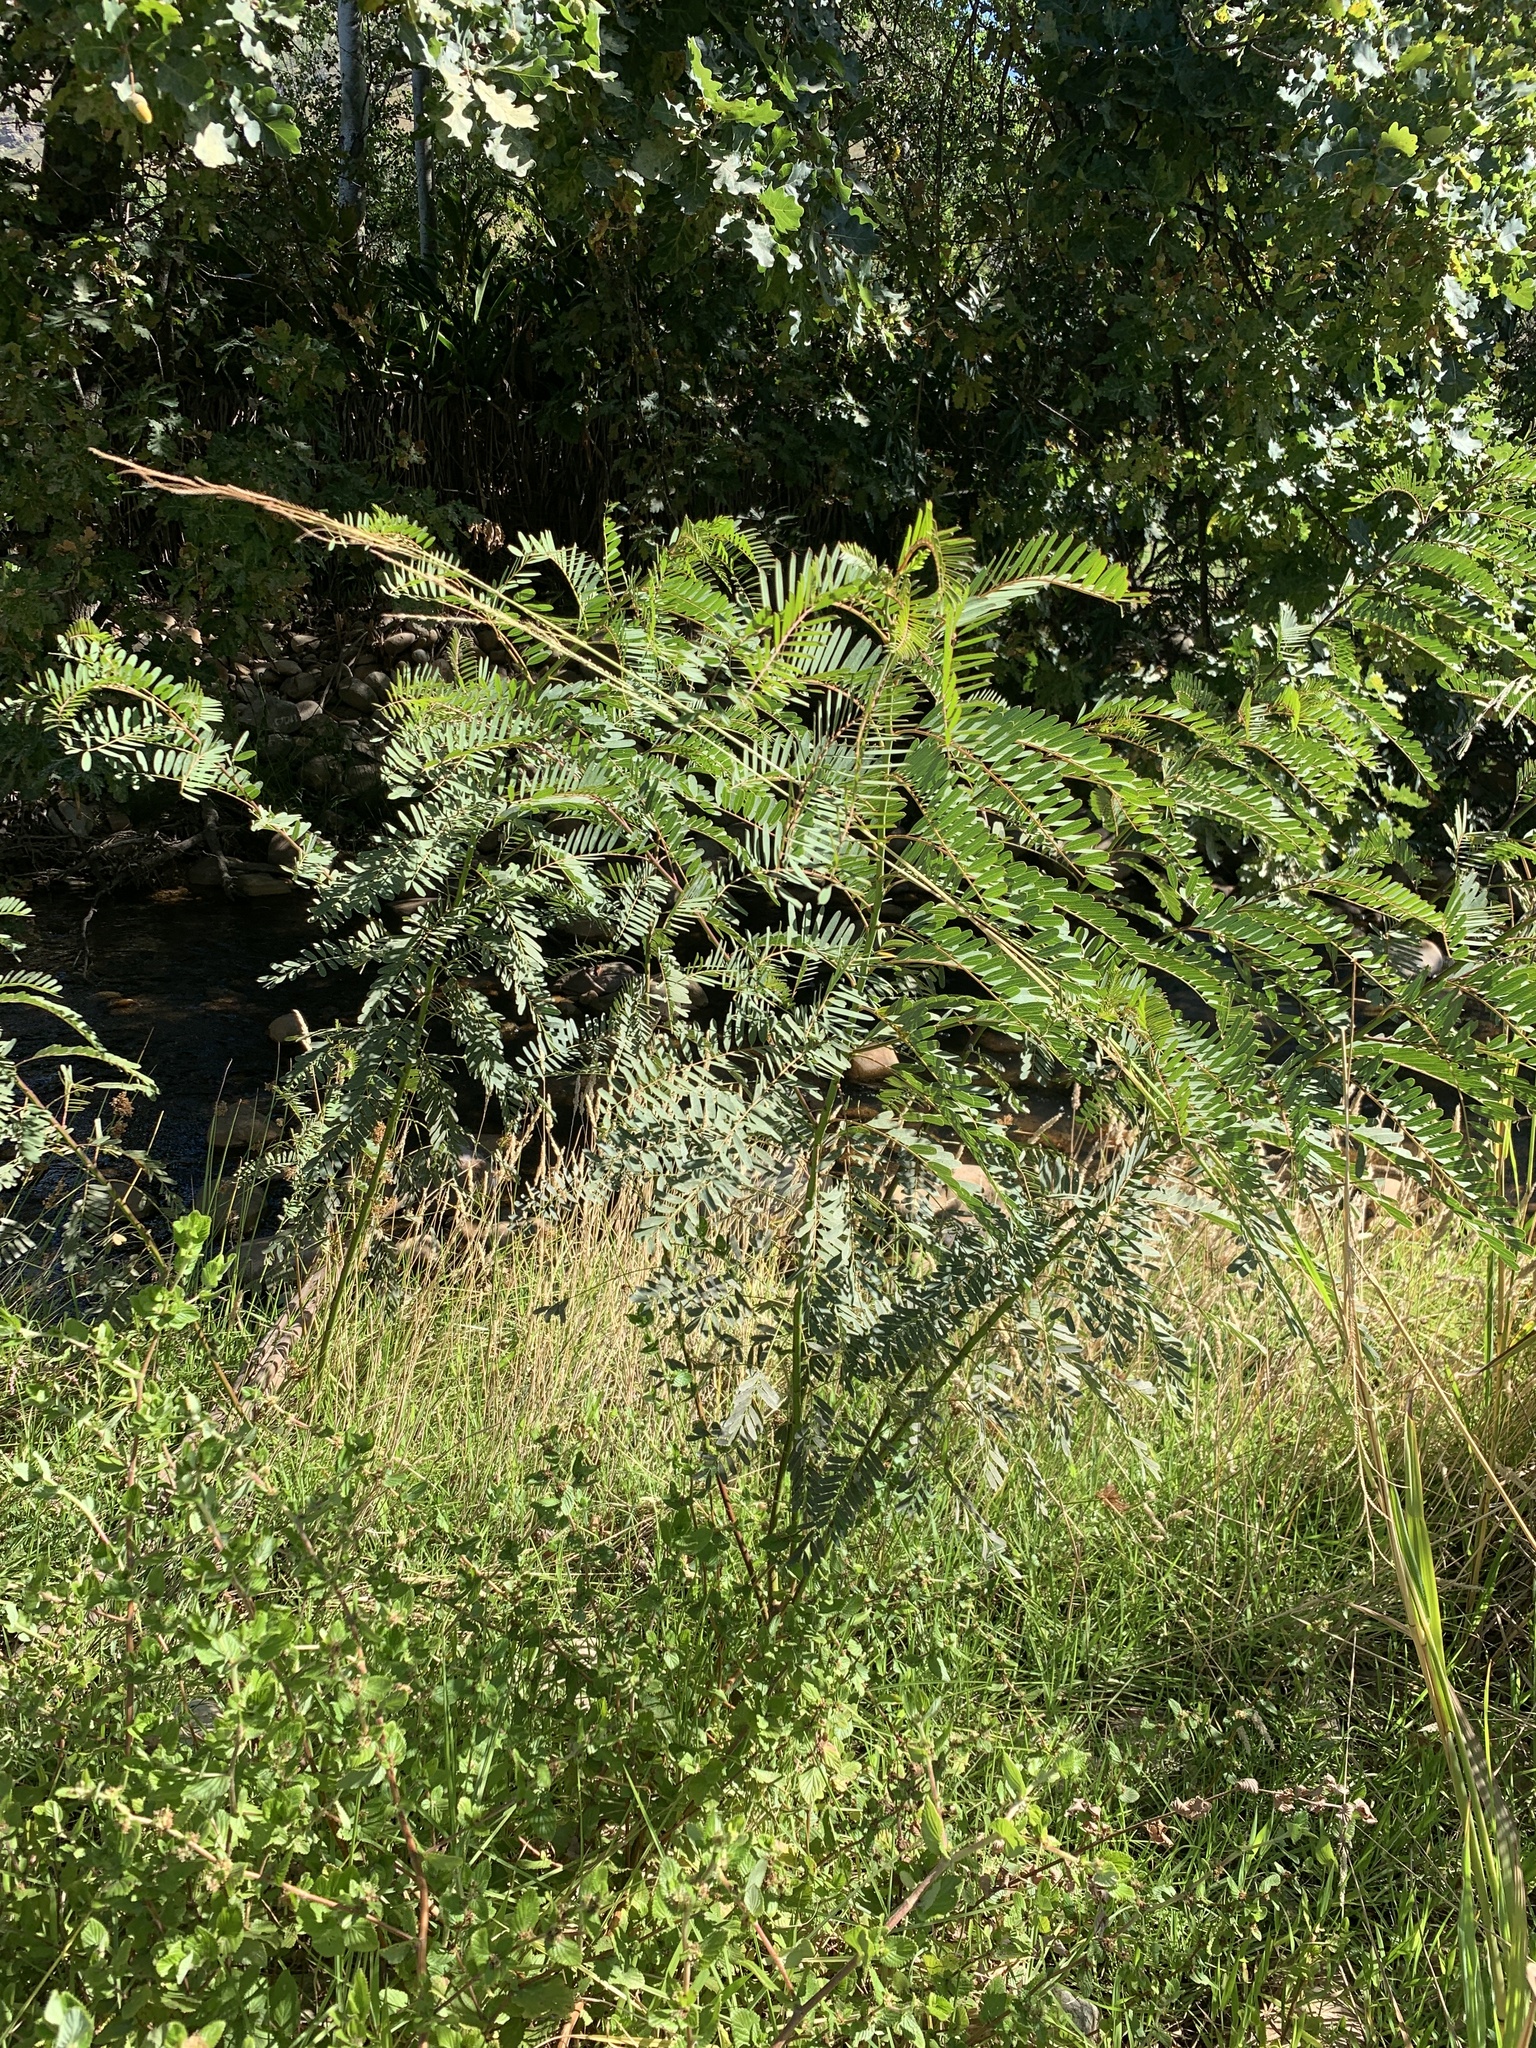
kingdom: Plantae
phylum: Tracheophyta
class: Magnoliopsida
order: Fabales
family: Fabaceae
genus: Sesbania
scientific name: Sesbania punicea
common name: Rattlebox
